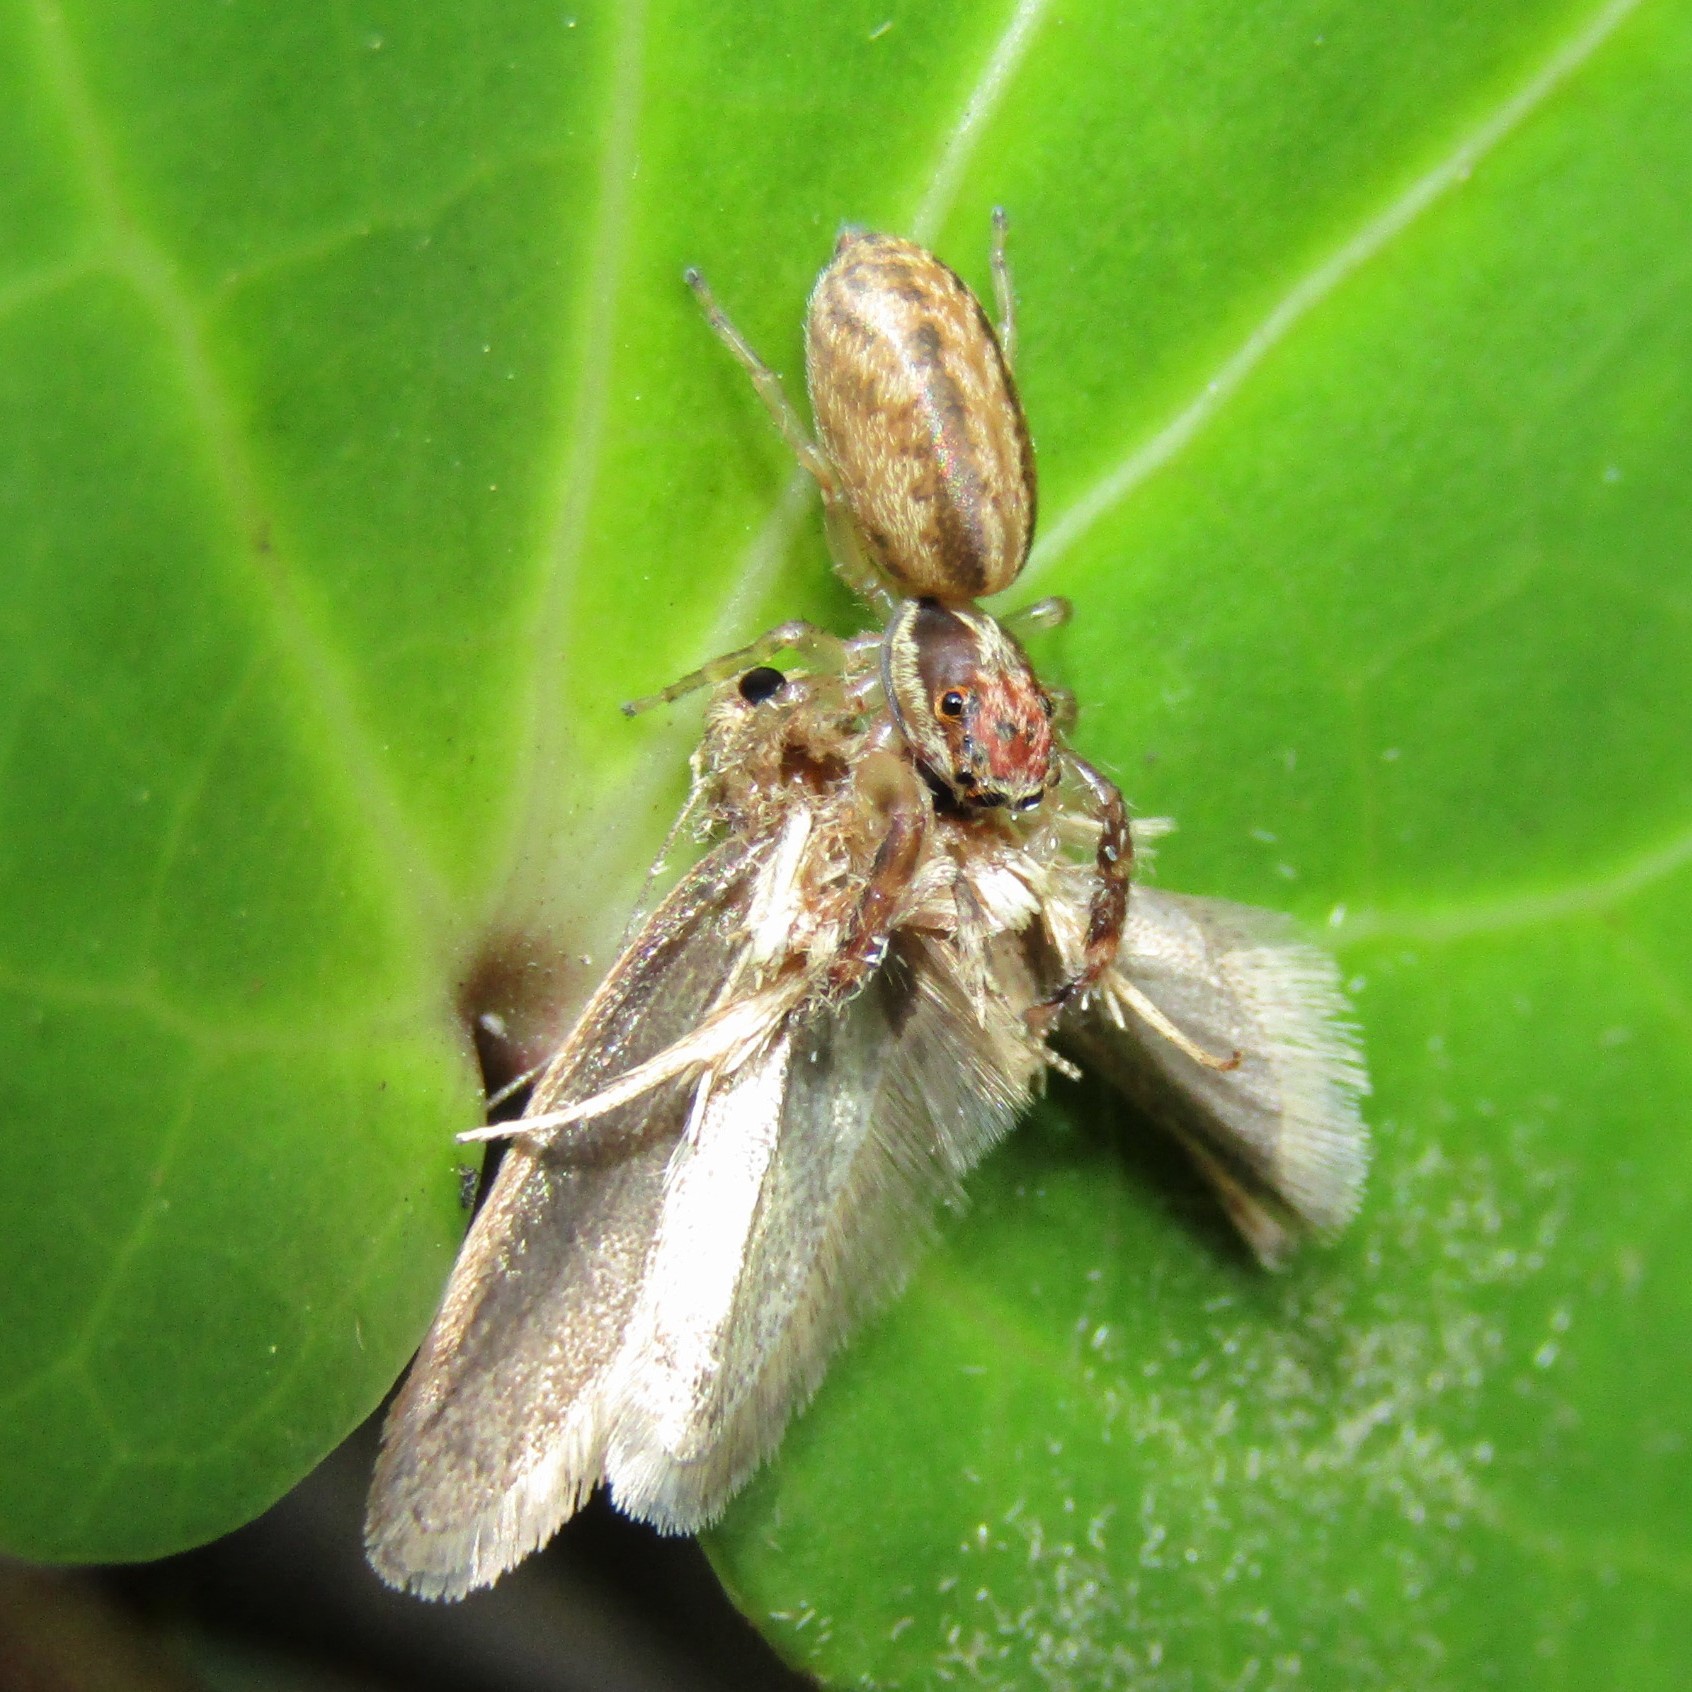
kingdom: Animalia
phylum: Arthropoda
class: Arachnida
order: Araneae
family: Salticidae
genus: Trite
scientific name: Trite mustilina
